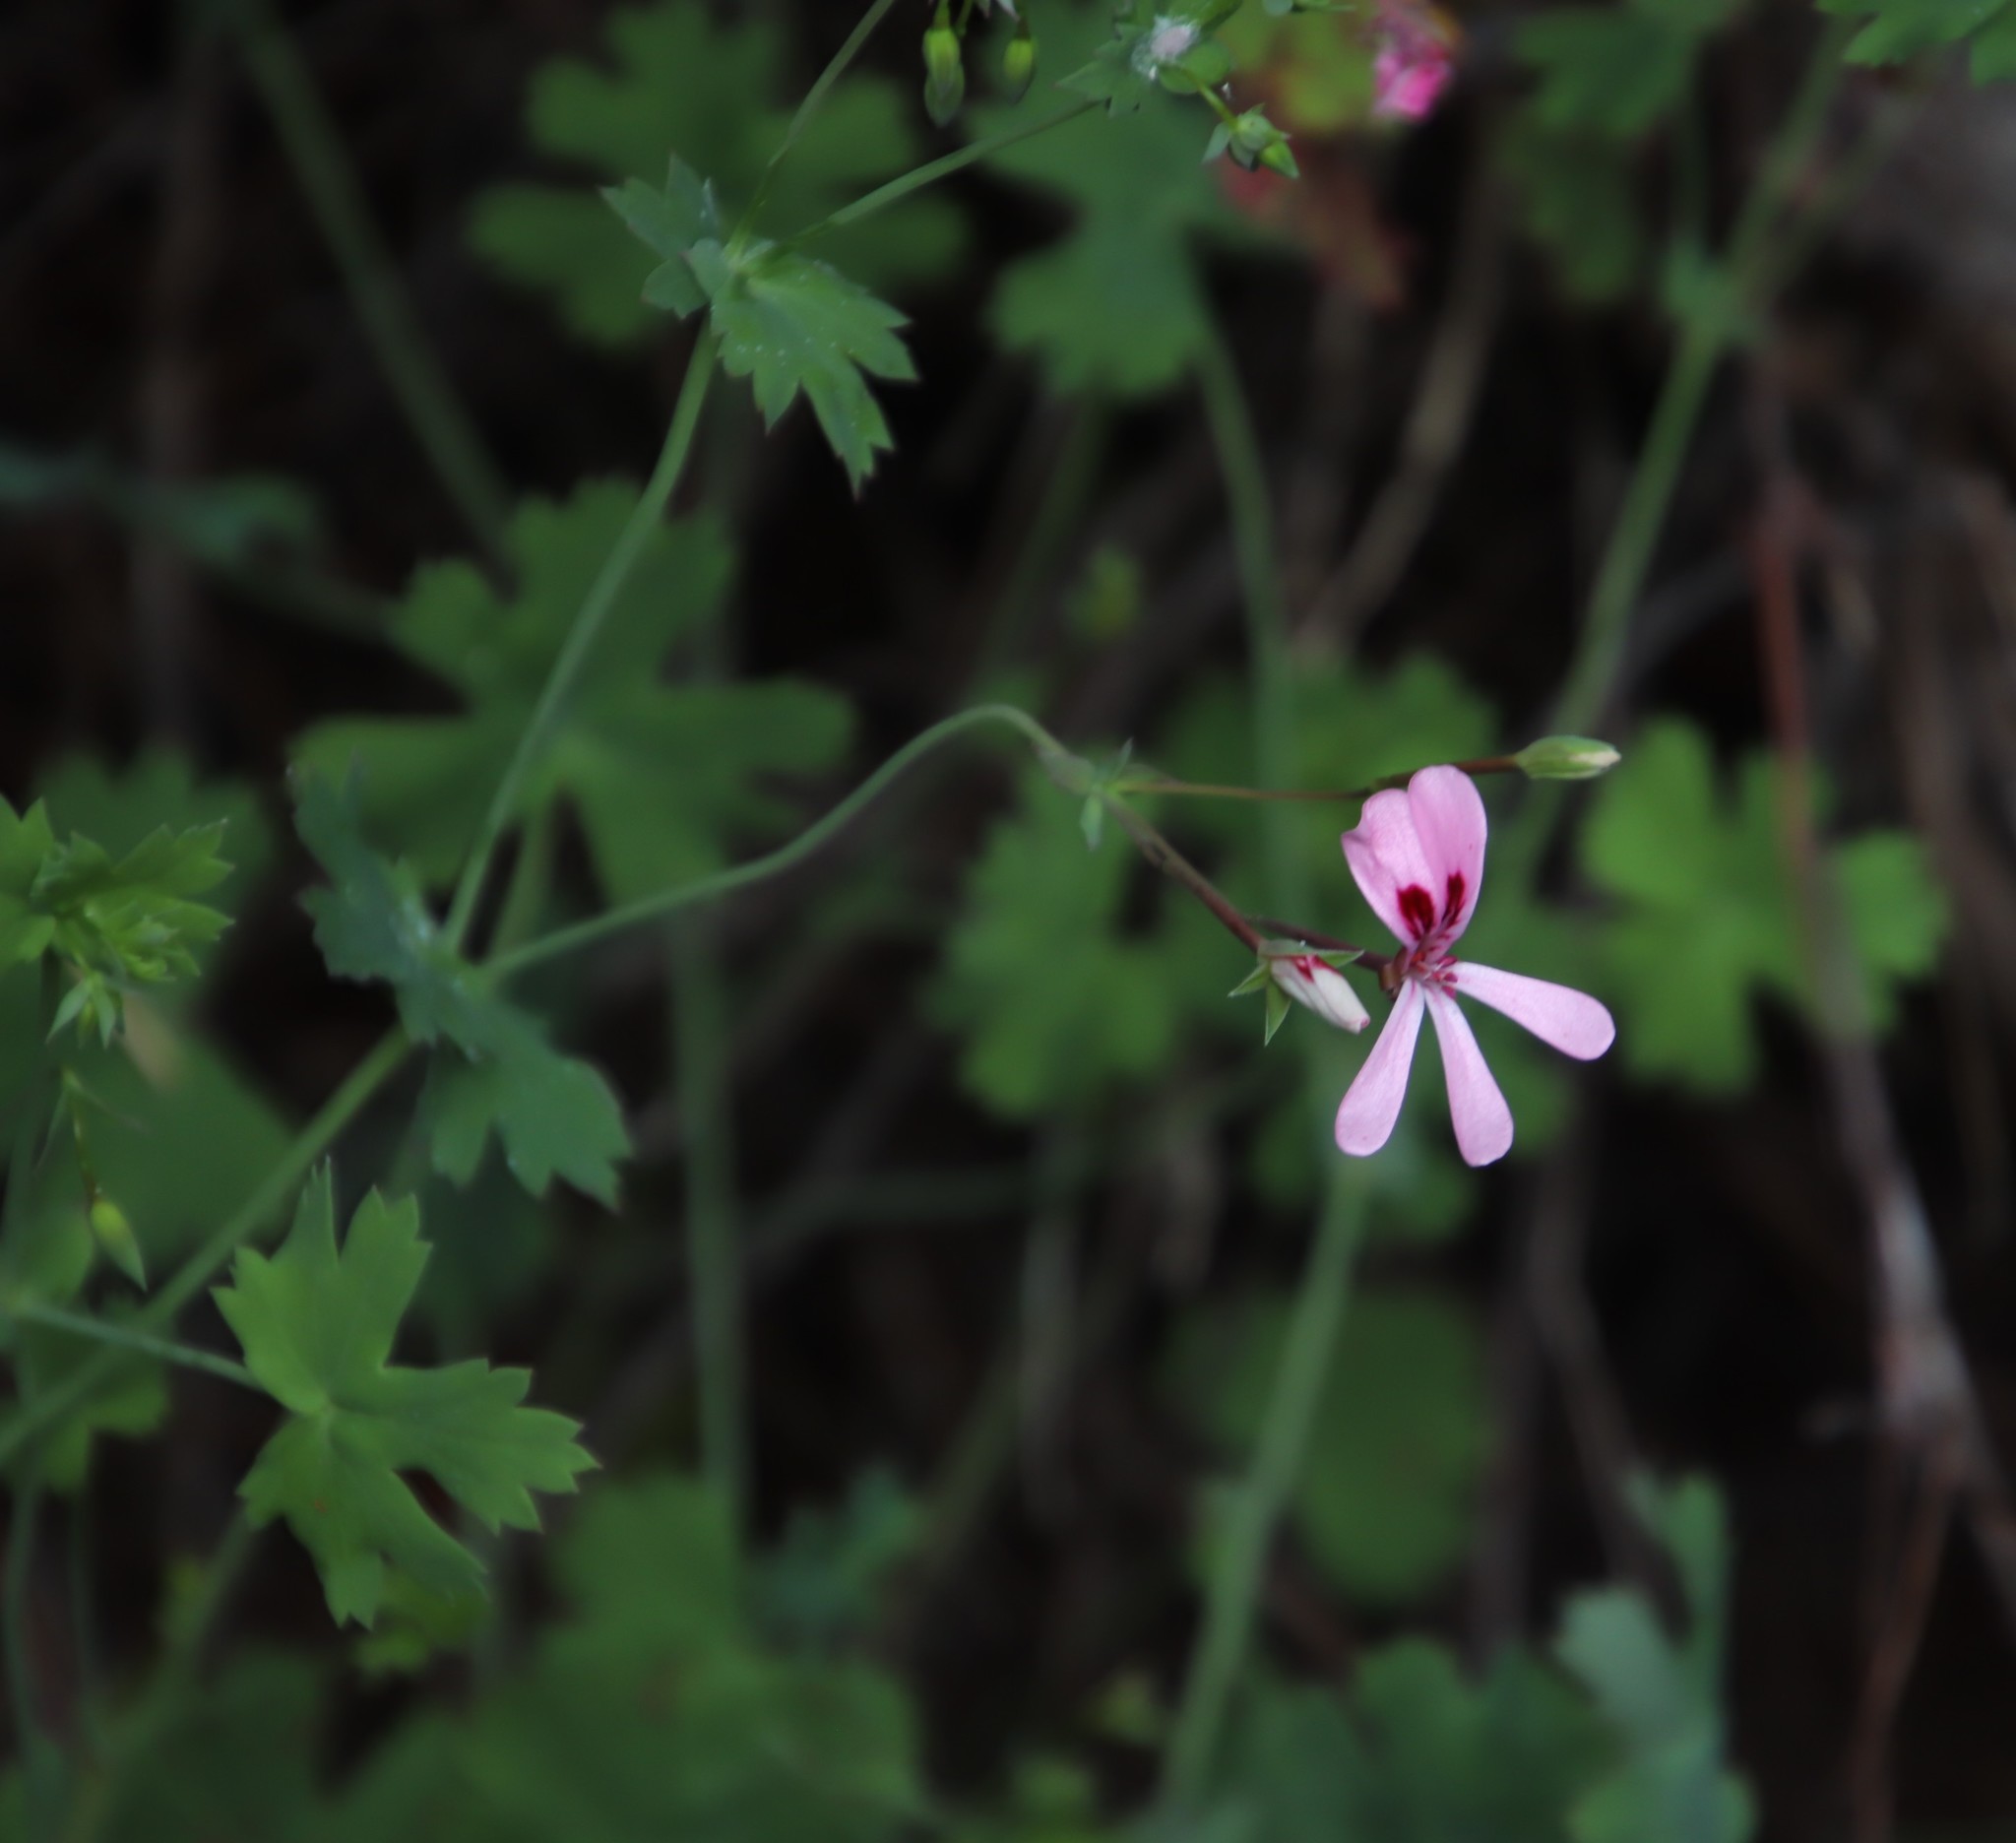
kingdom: Plantae
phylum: Tracheophyta
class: Magnoliopsida
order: Geraniales
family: Geraniaceae
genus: Pelargonium
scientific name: Pelargonium patulum
